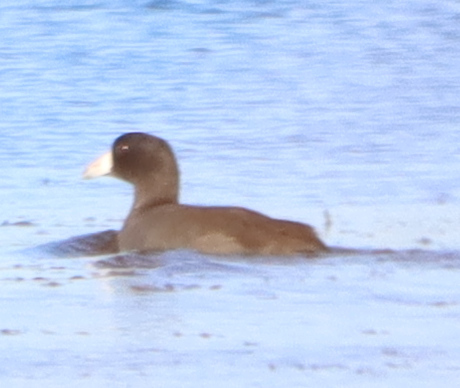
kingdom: Animalia
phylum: Chordata
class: Aves
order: Gruiformes
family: Rallidae
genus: Fulica
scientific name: Fulica americana
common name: American coot
